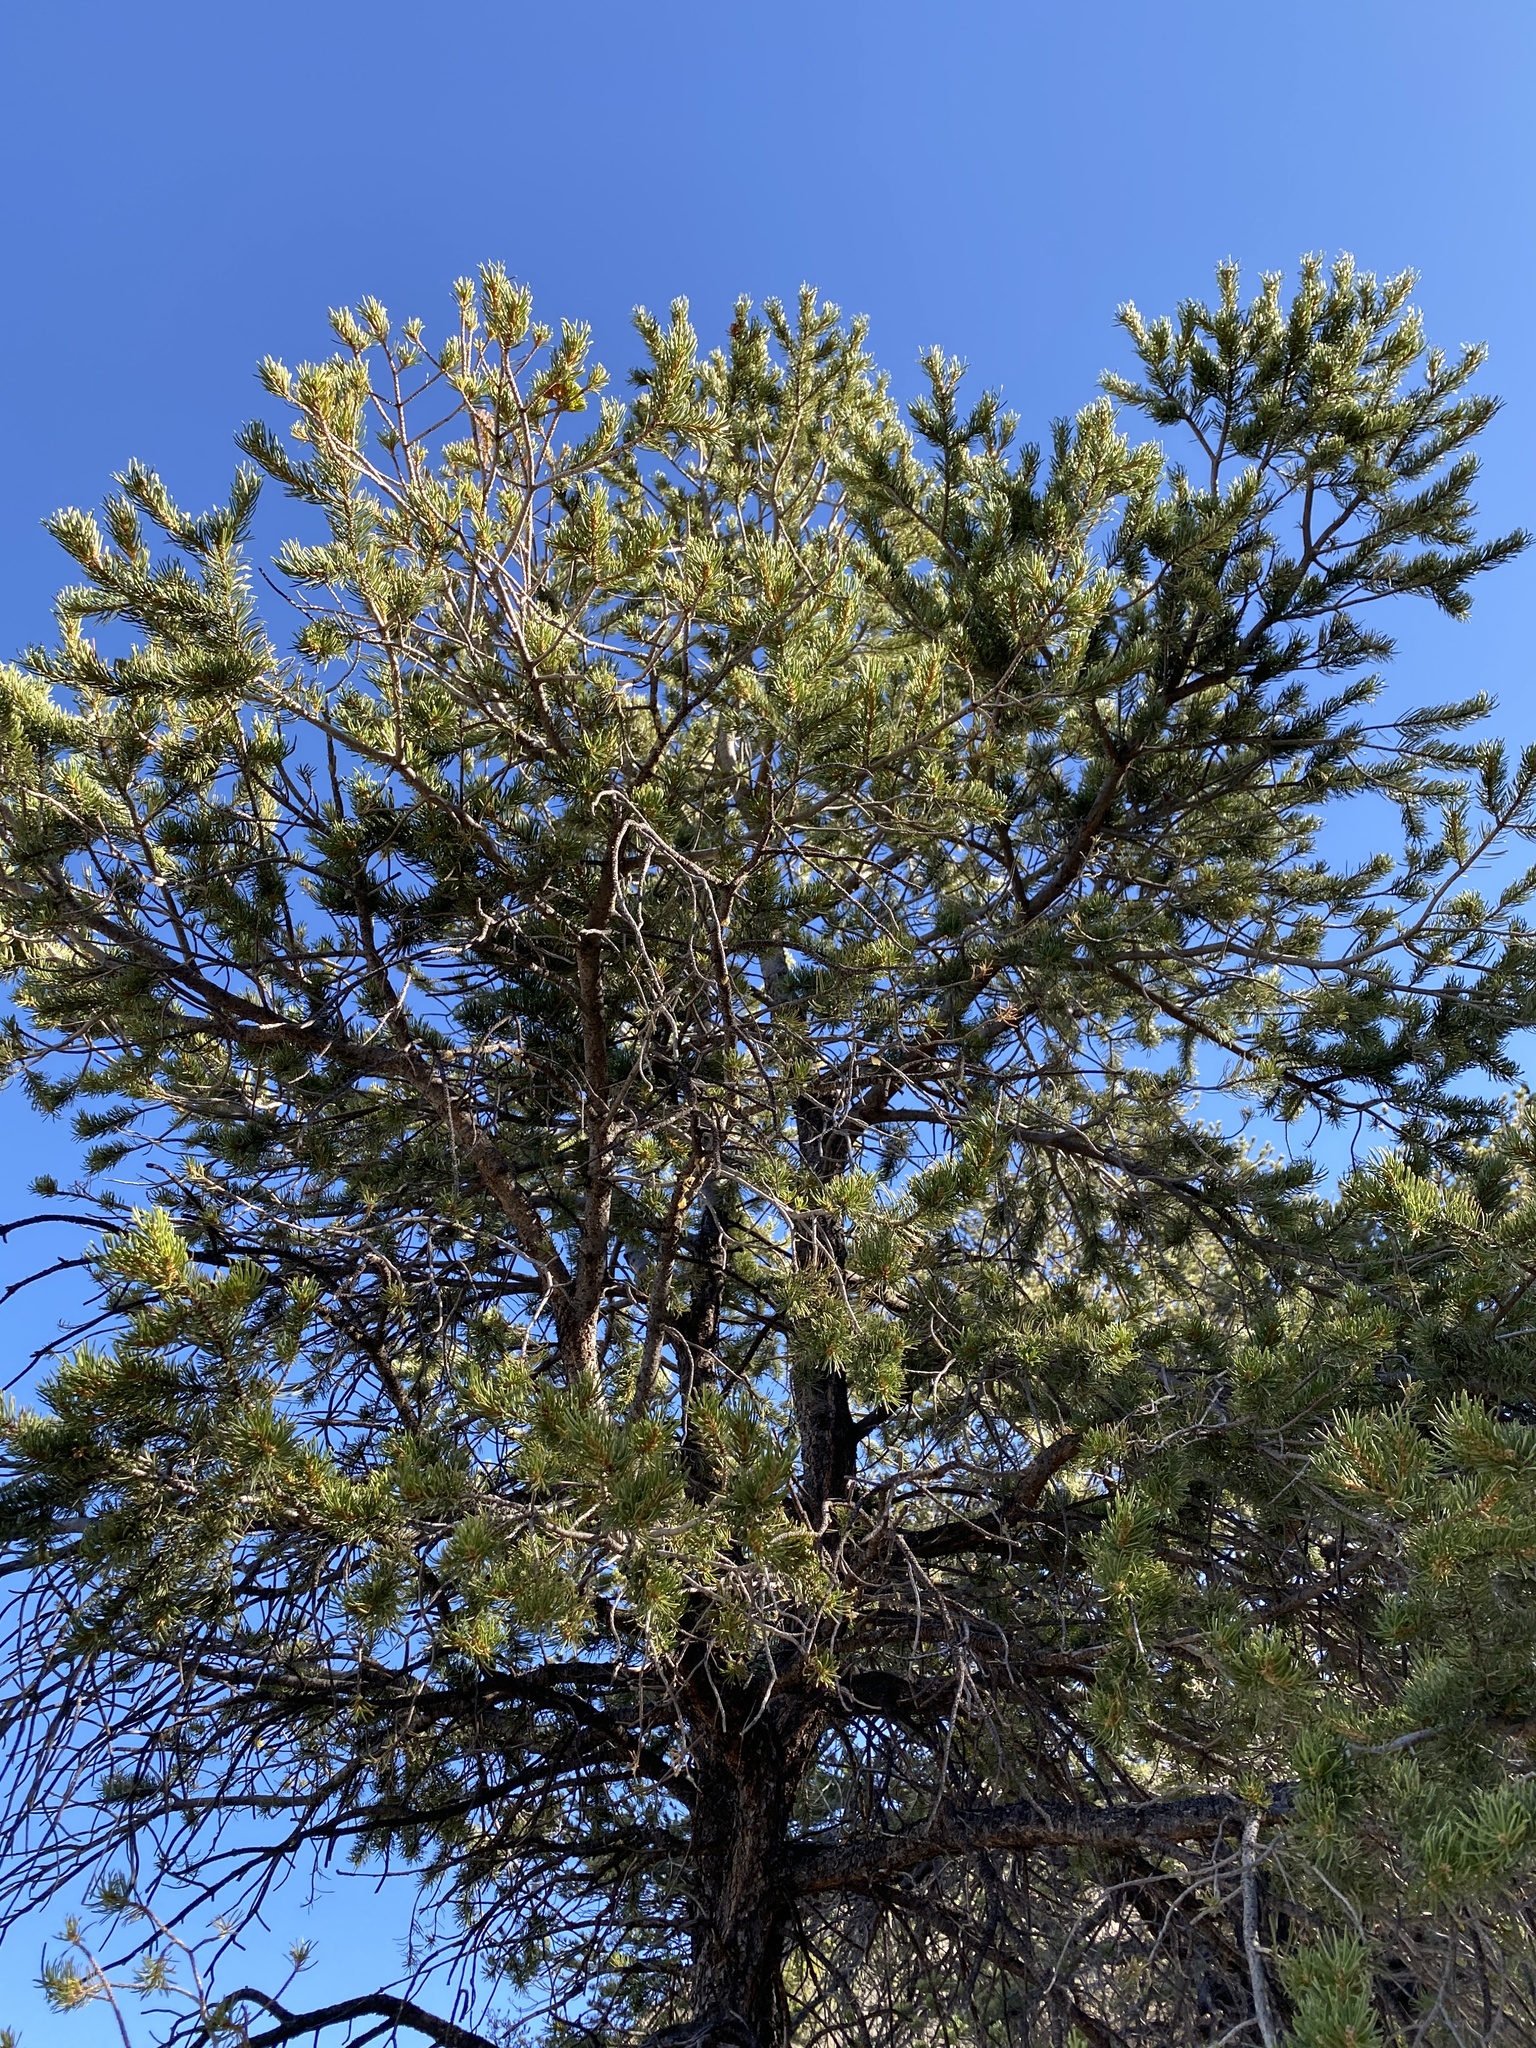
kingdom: Plantae
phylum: Tracheophyta
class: Pinopsida
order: Pinales
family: Pinaceae
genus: Pinus
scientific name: Pinus edulis
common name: Colorado pinyon
